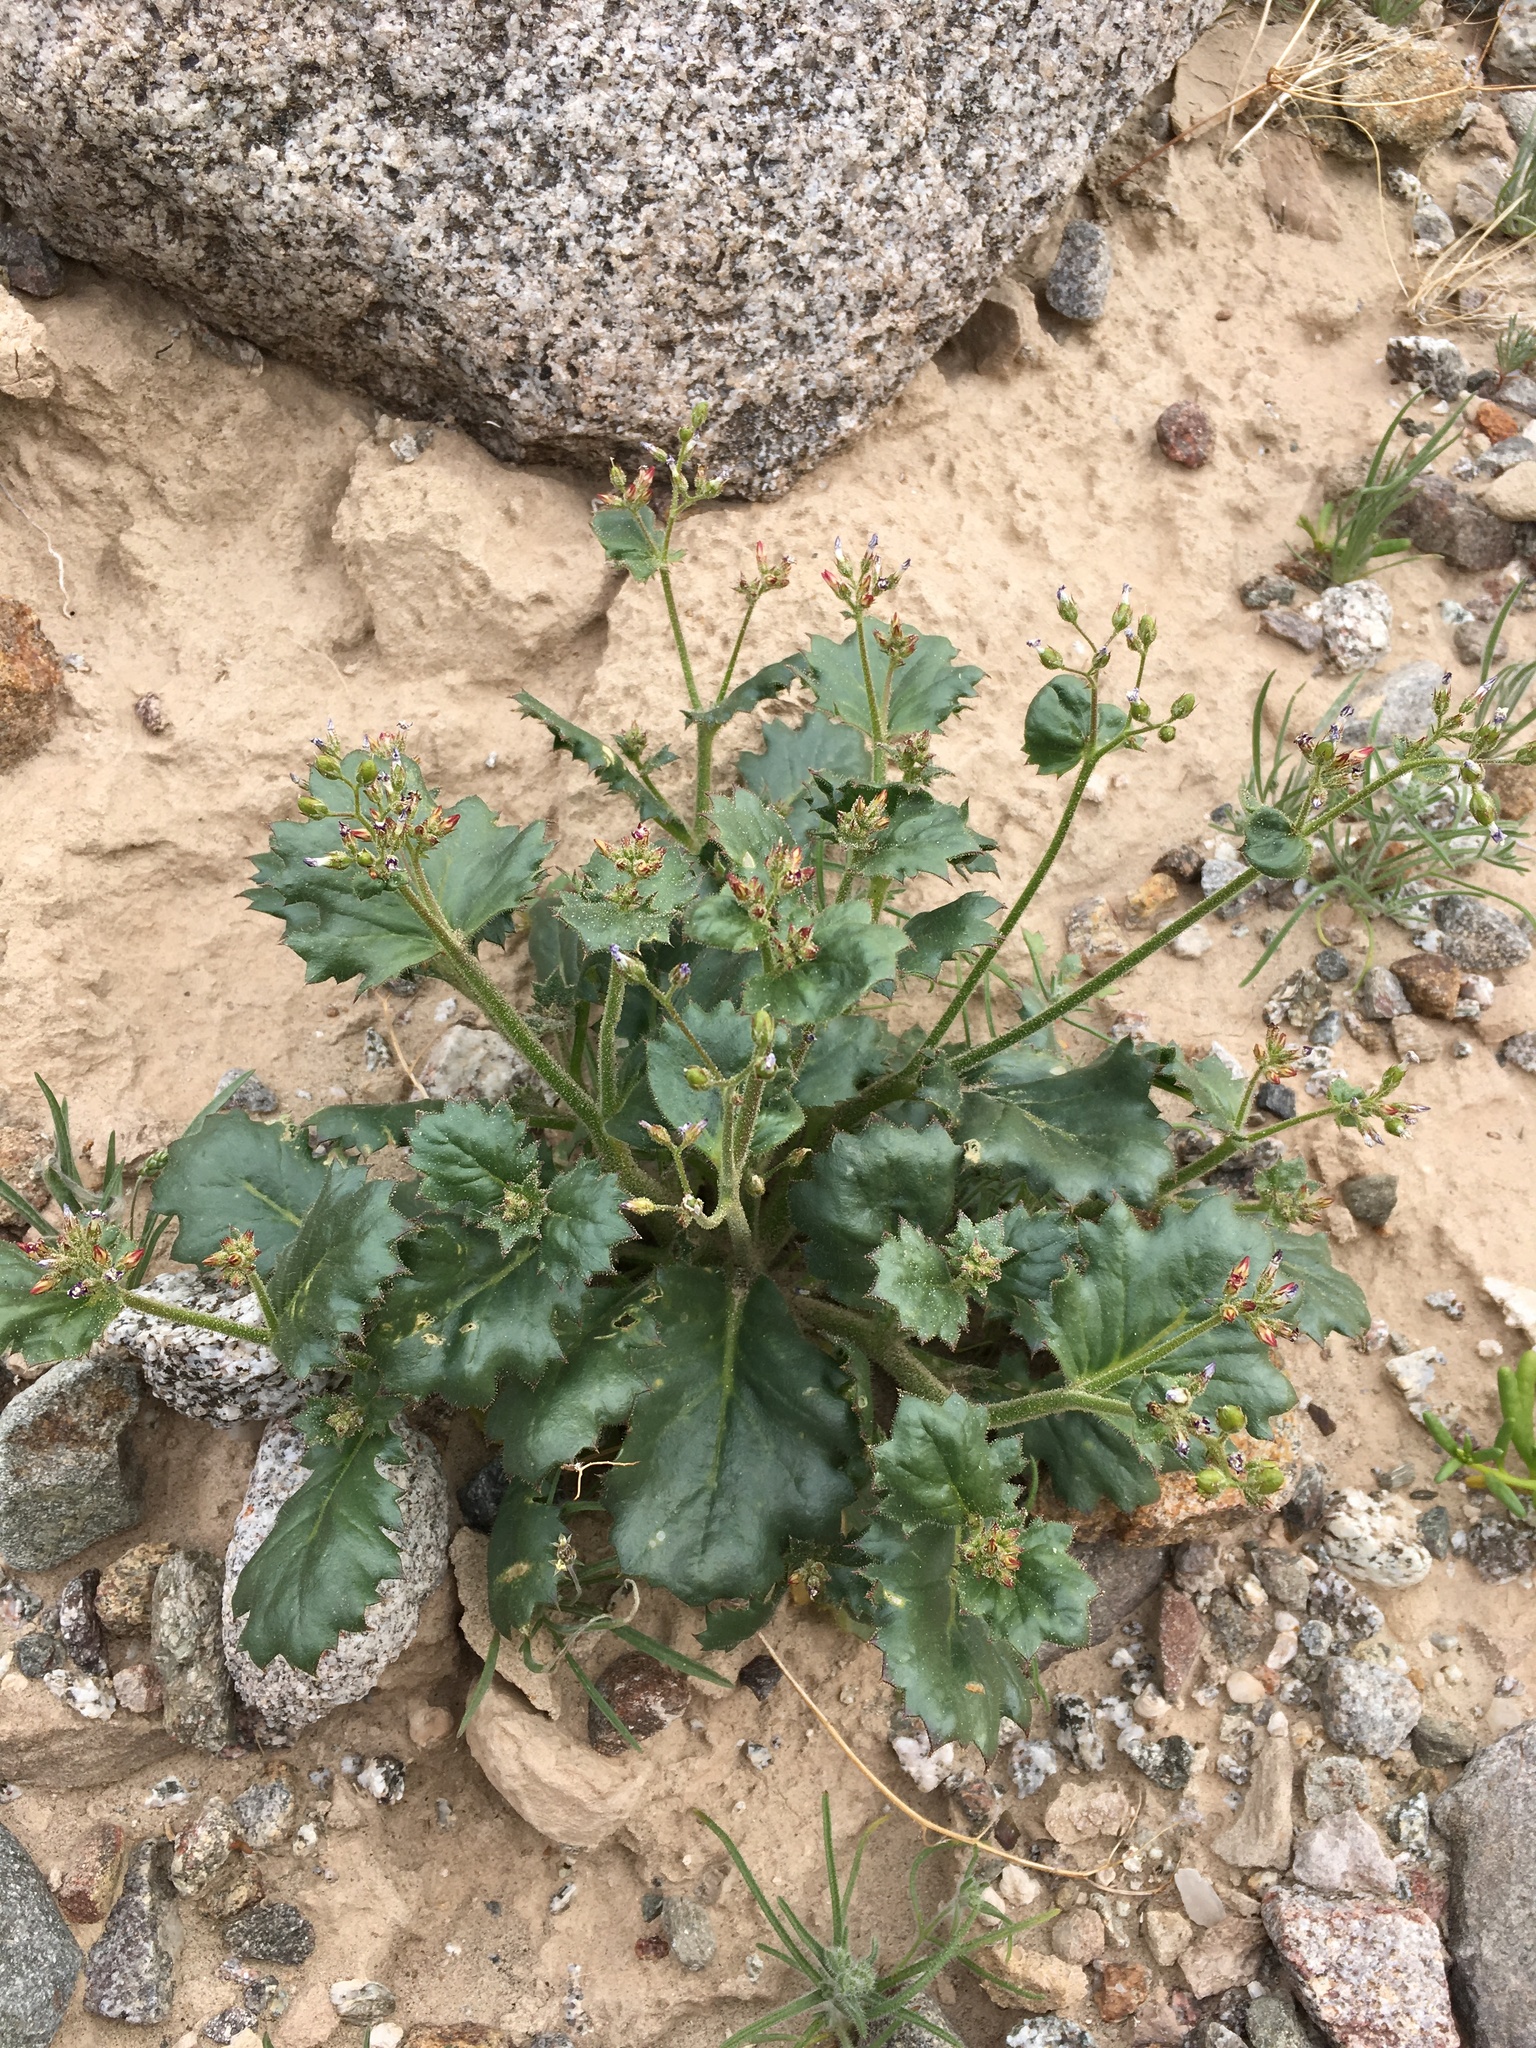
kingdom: Plantae
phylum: Tracheophyta
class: Magnoliopsida
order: Ericales
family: Polemoniaceae
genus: Aliciella
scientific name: Aliciella latifolia
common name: Broad-leaf gilia
